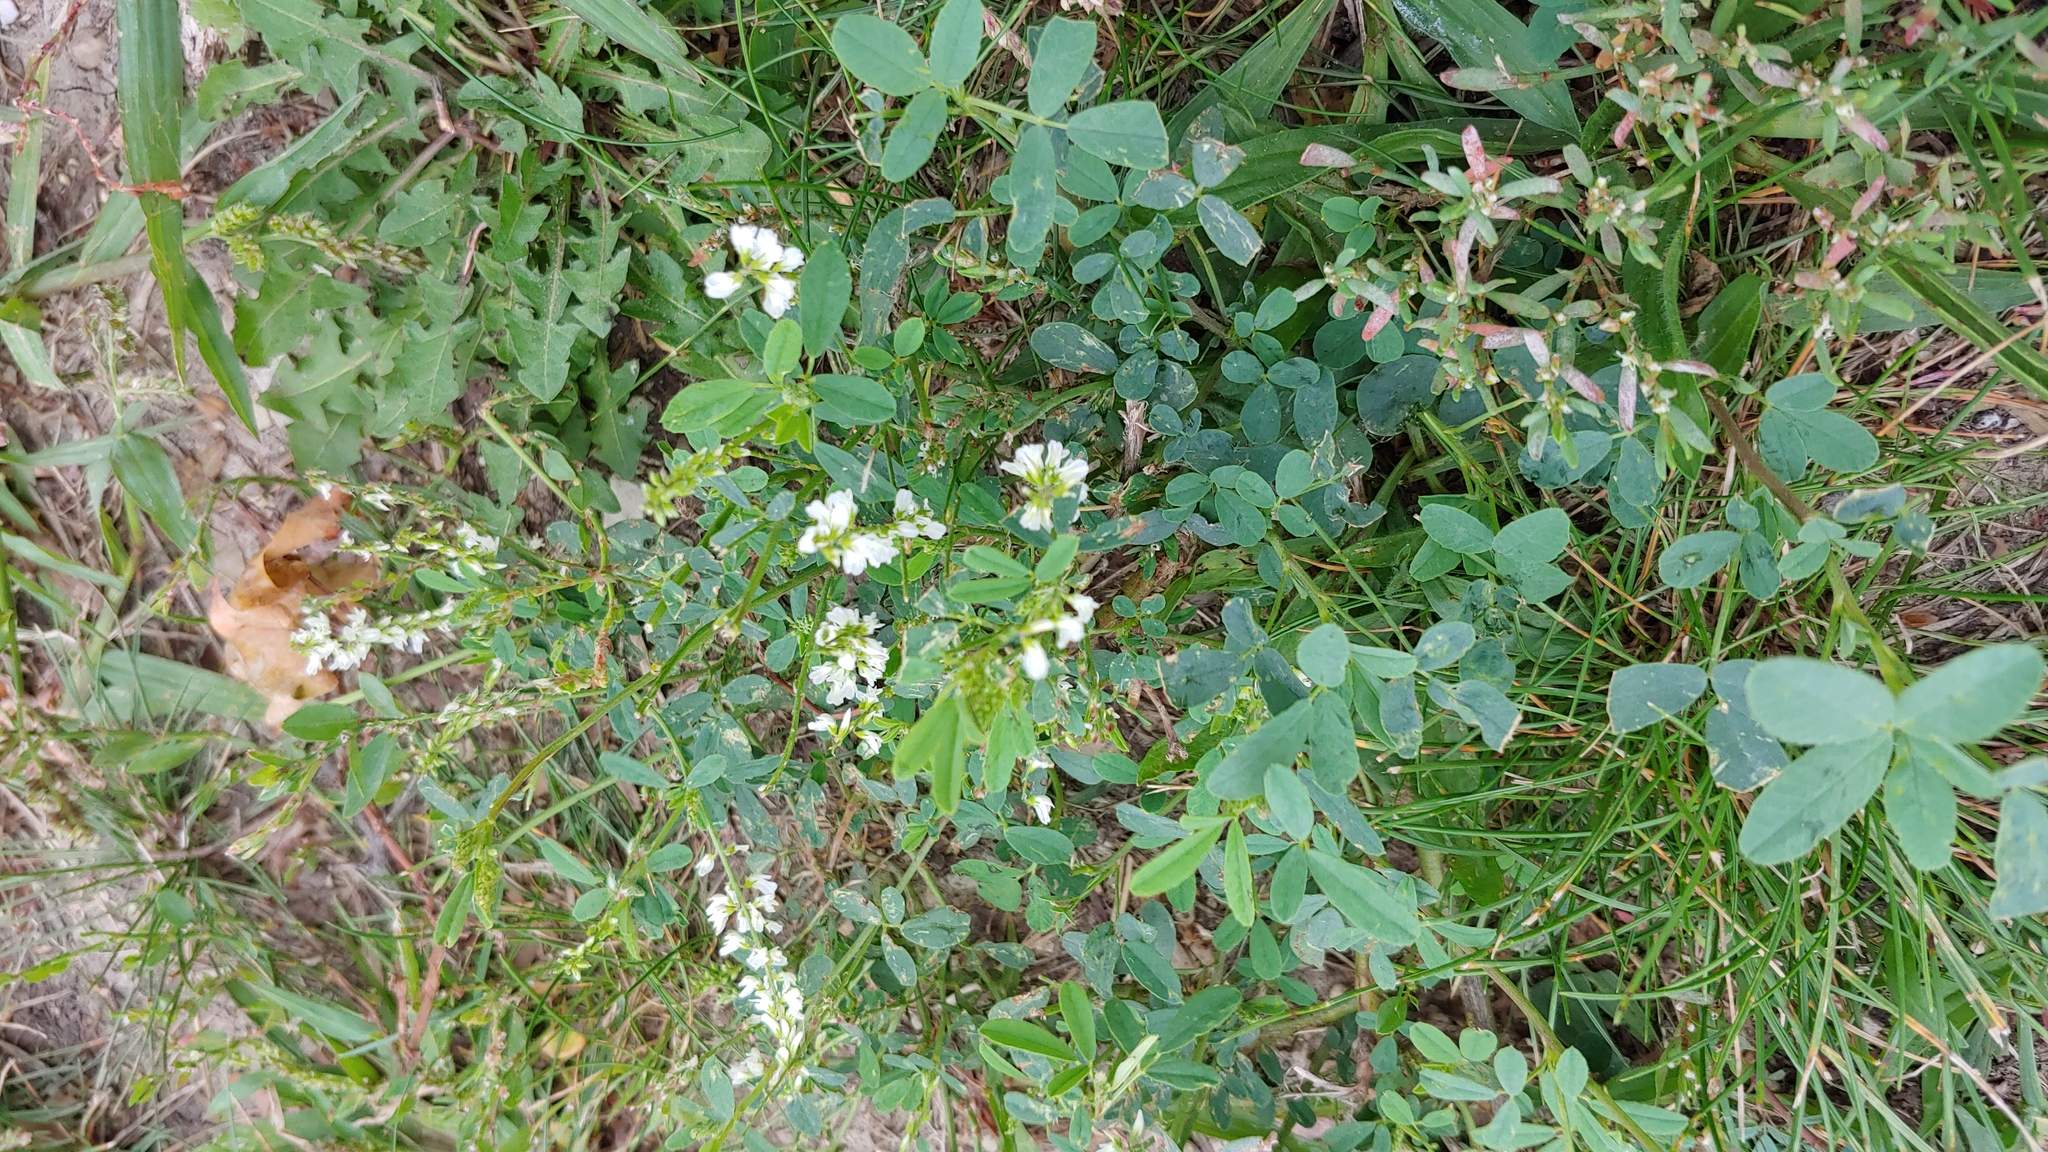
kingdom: Plantae
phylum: Tracheophyta
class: Magnoliopsida
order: Fabales
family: Fabaceae
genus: Melilotus
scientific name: Melilotus albus
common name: White melilot
